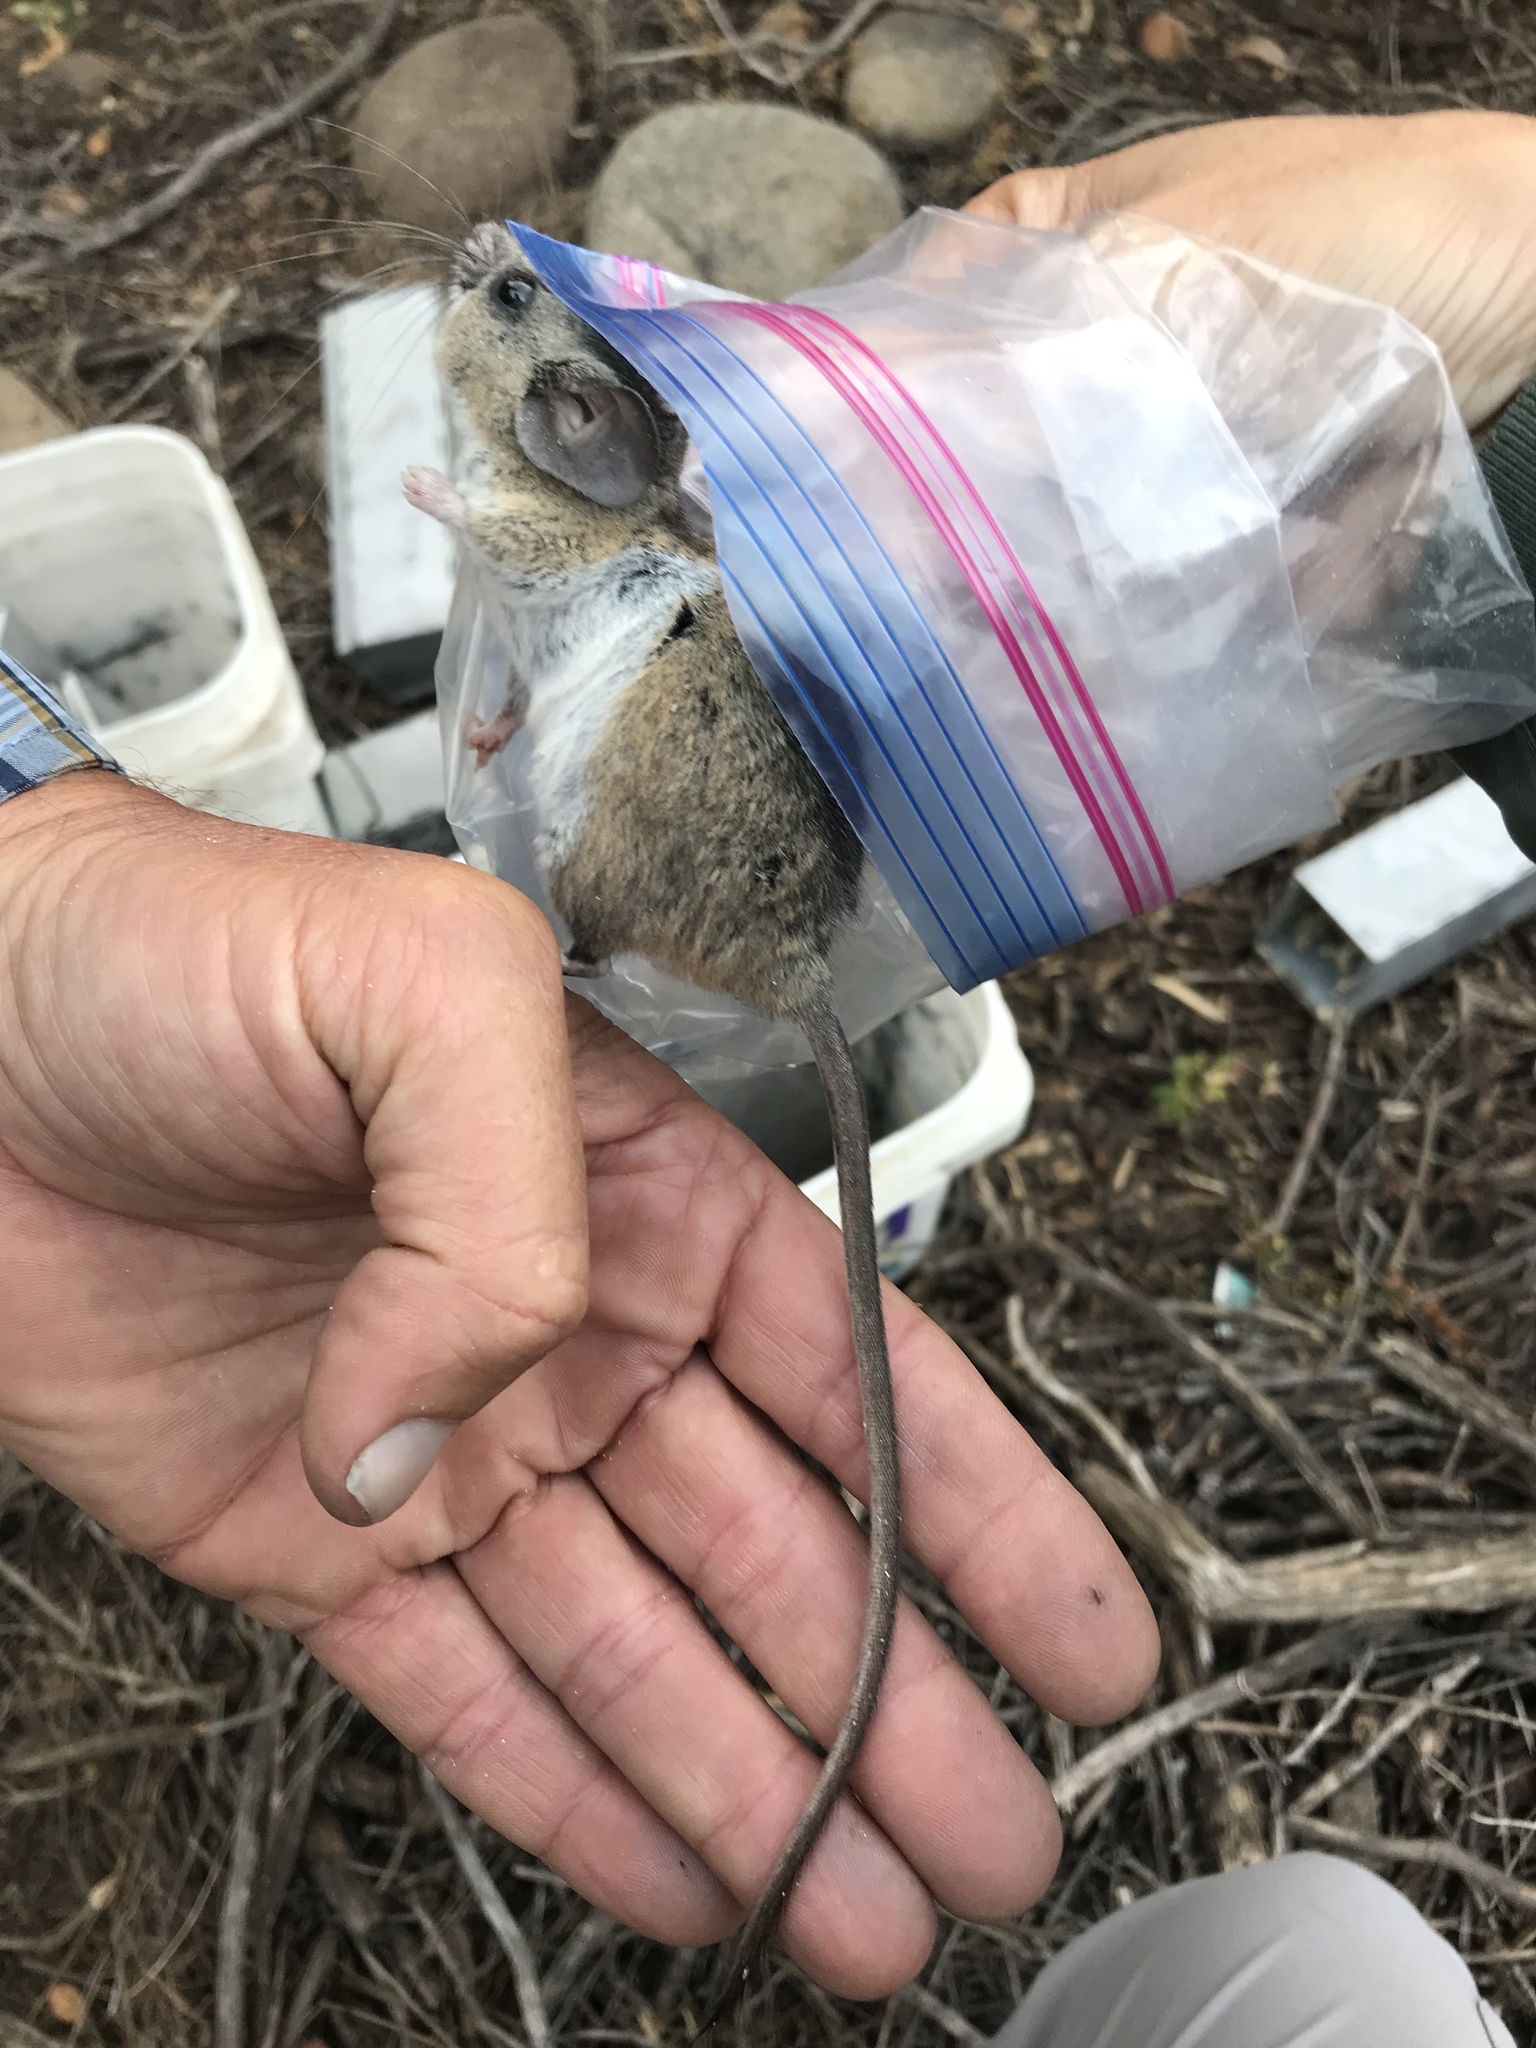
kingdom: Animalia
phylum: Chordata
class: Mammalia
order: Rodentia
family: Cricetidae
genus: Peromyscus
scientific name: Peromyscus californicus
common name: California deermouse
